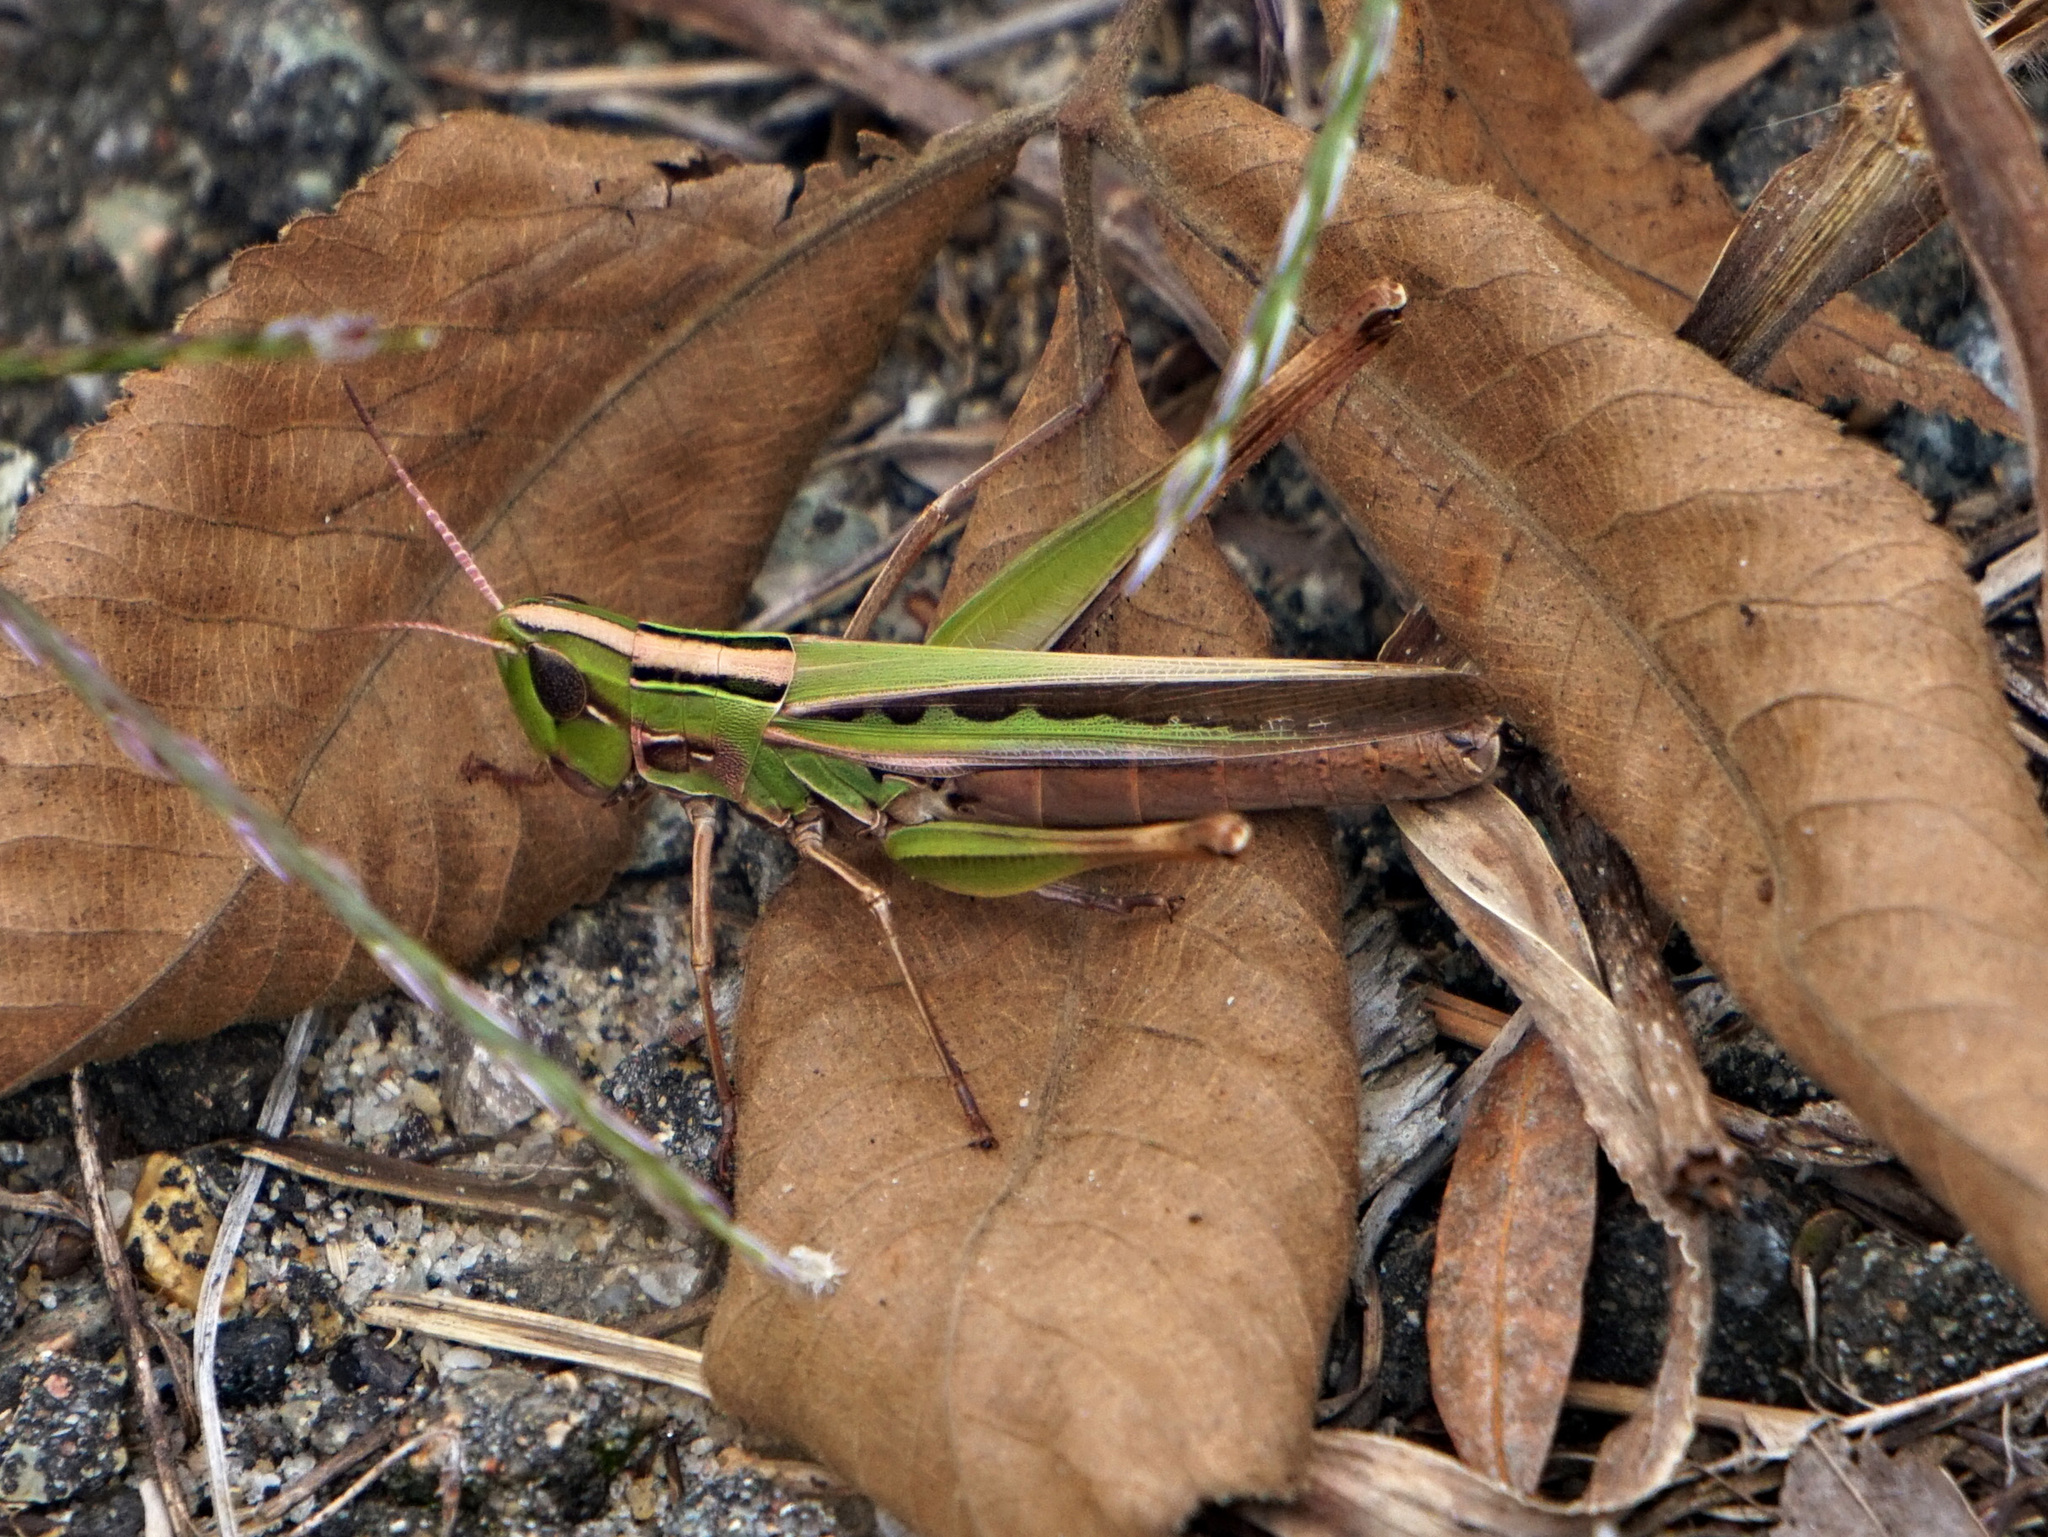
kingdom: Animalia
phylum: Arthropoda
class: Insecta
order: Orthoptera
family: Acrididae
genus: Syrbula
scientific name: Syrbula admirabilis
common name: Handsome grasshopper
